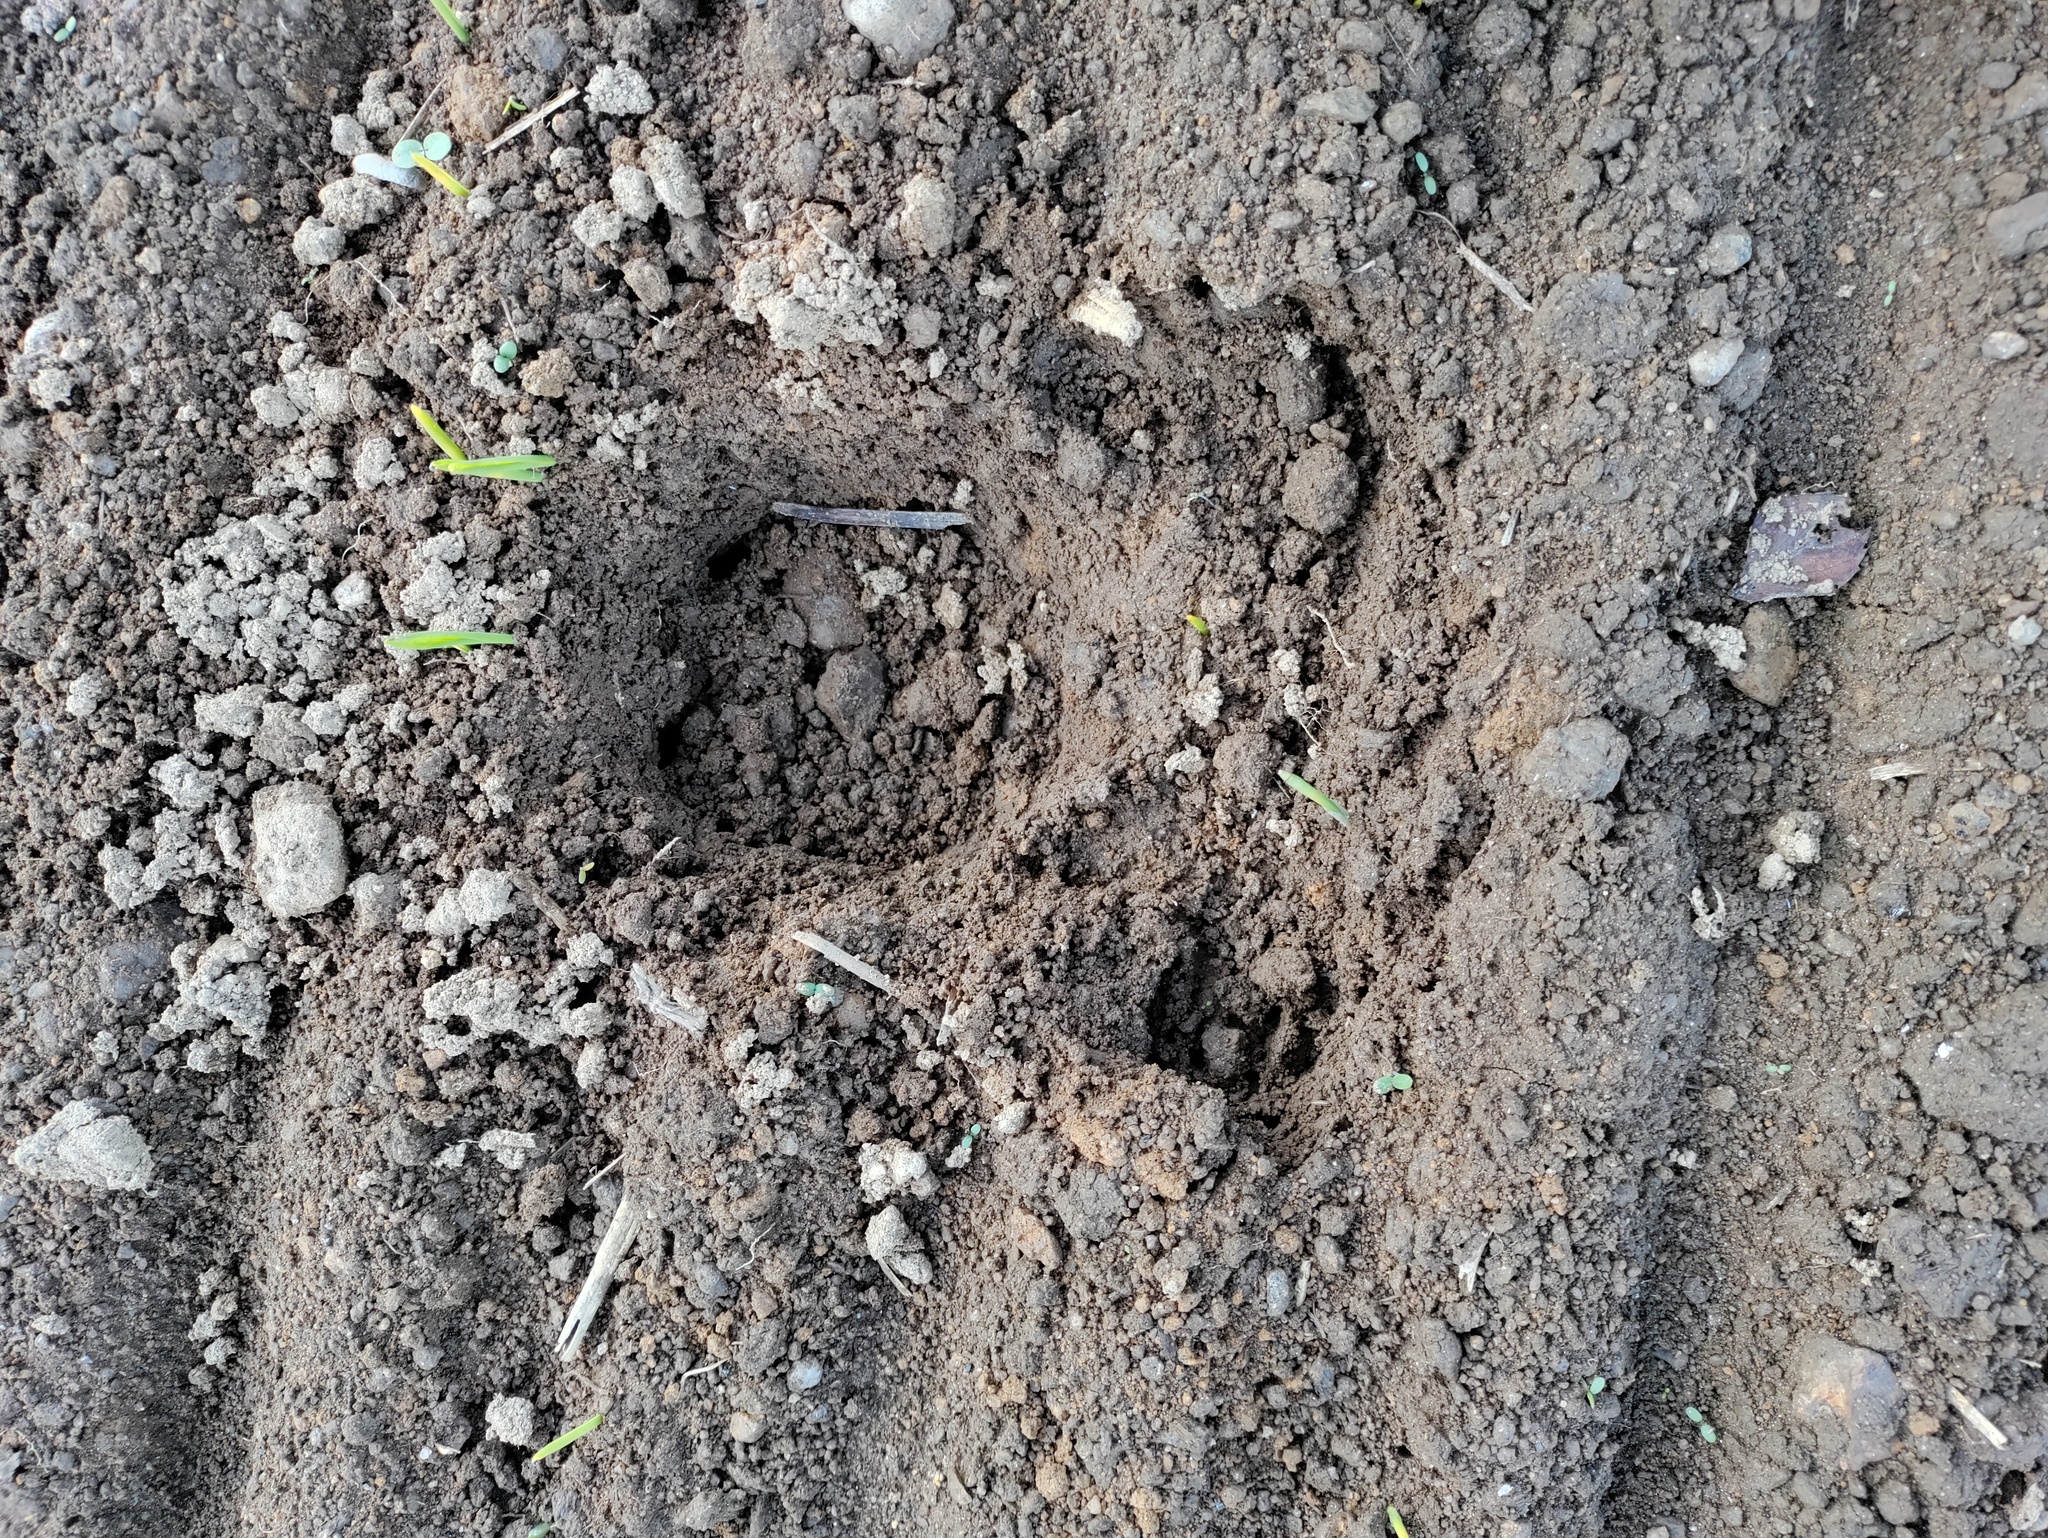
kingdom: Animalia
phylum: Chordata
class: Mammalia
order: Artiodactyla
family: Suidae
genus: Sus
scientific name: Sus scrofa
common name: Wild boar
